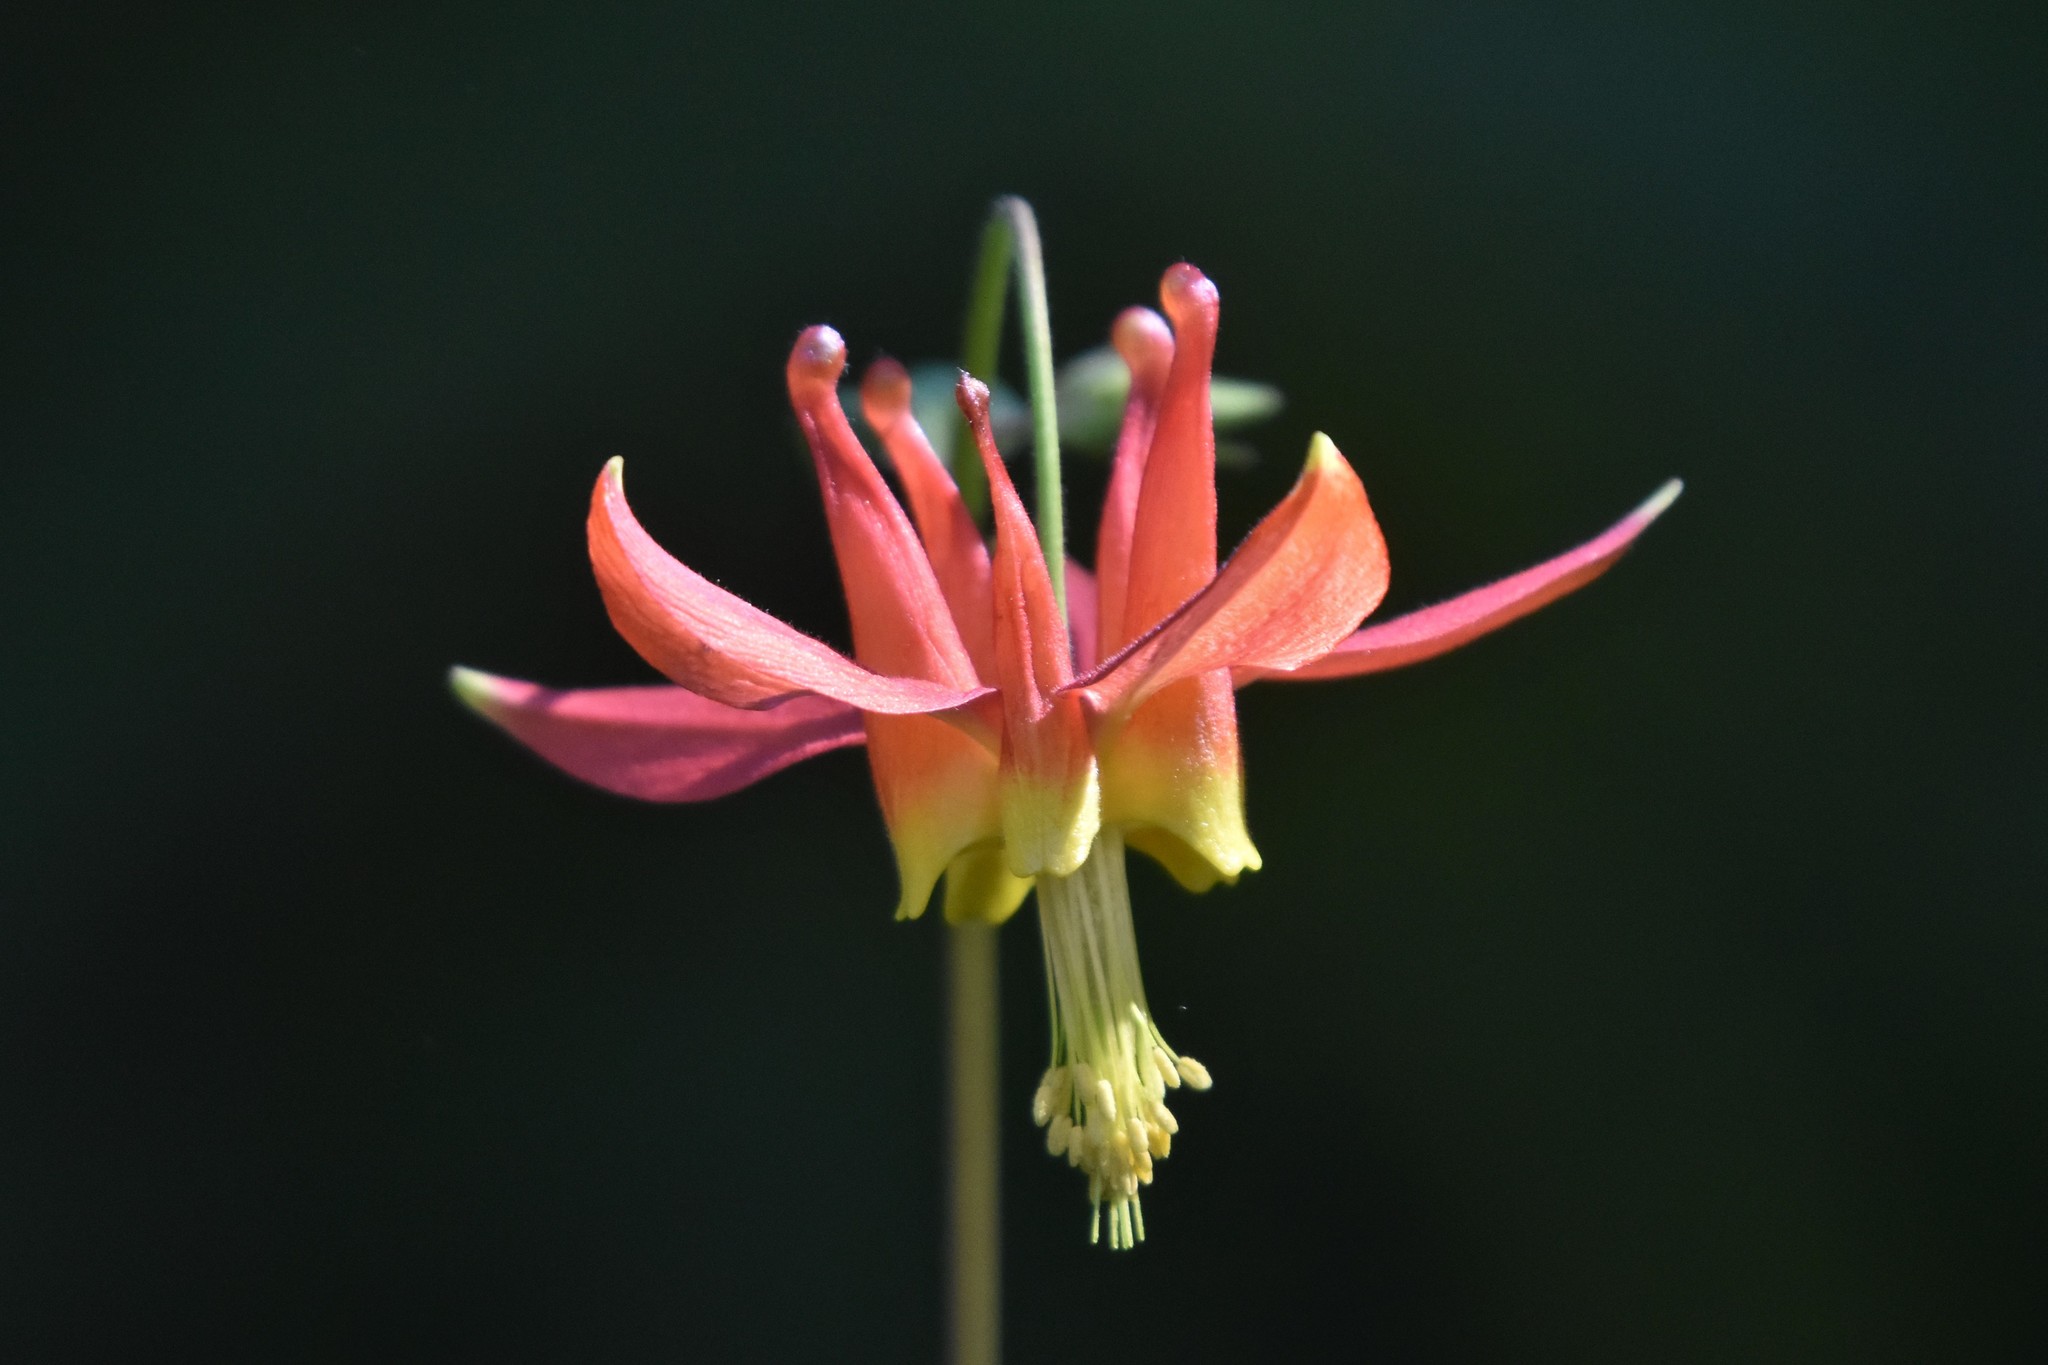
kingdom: Plantae
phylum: Tracheophyta
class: Magnoliopsida
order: Ranunculales
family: Ranunculaceae
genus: Aquilegia
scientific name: Aquilegia formosa
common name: Sitka columbine
